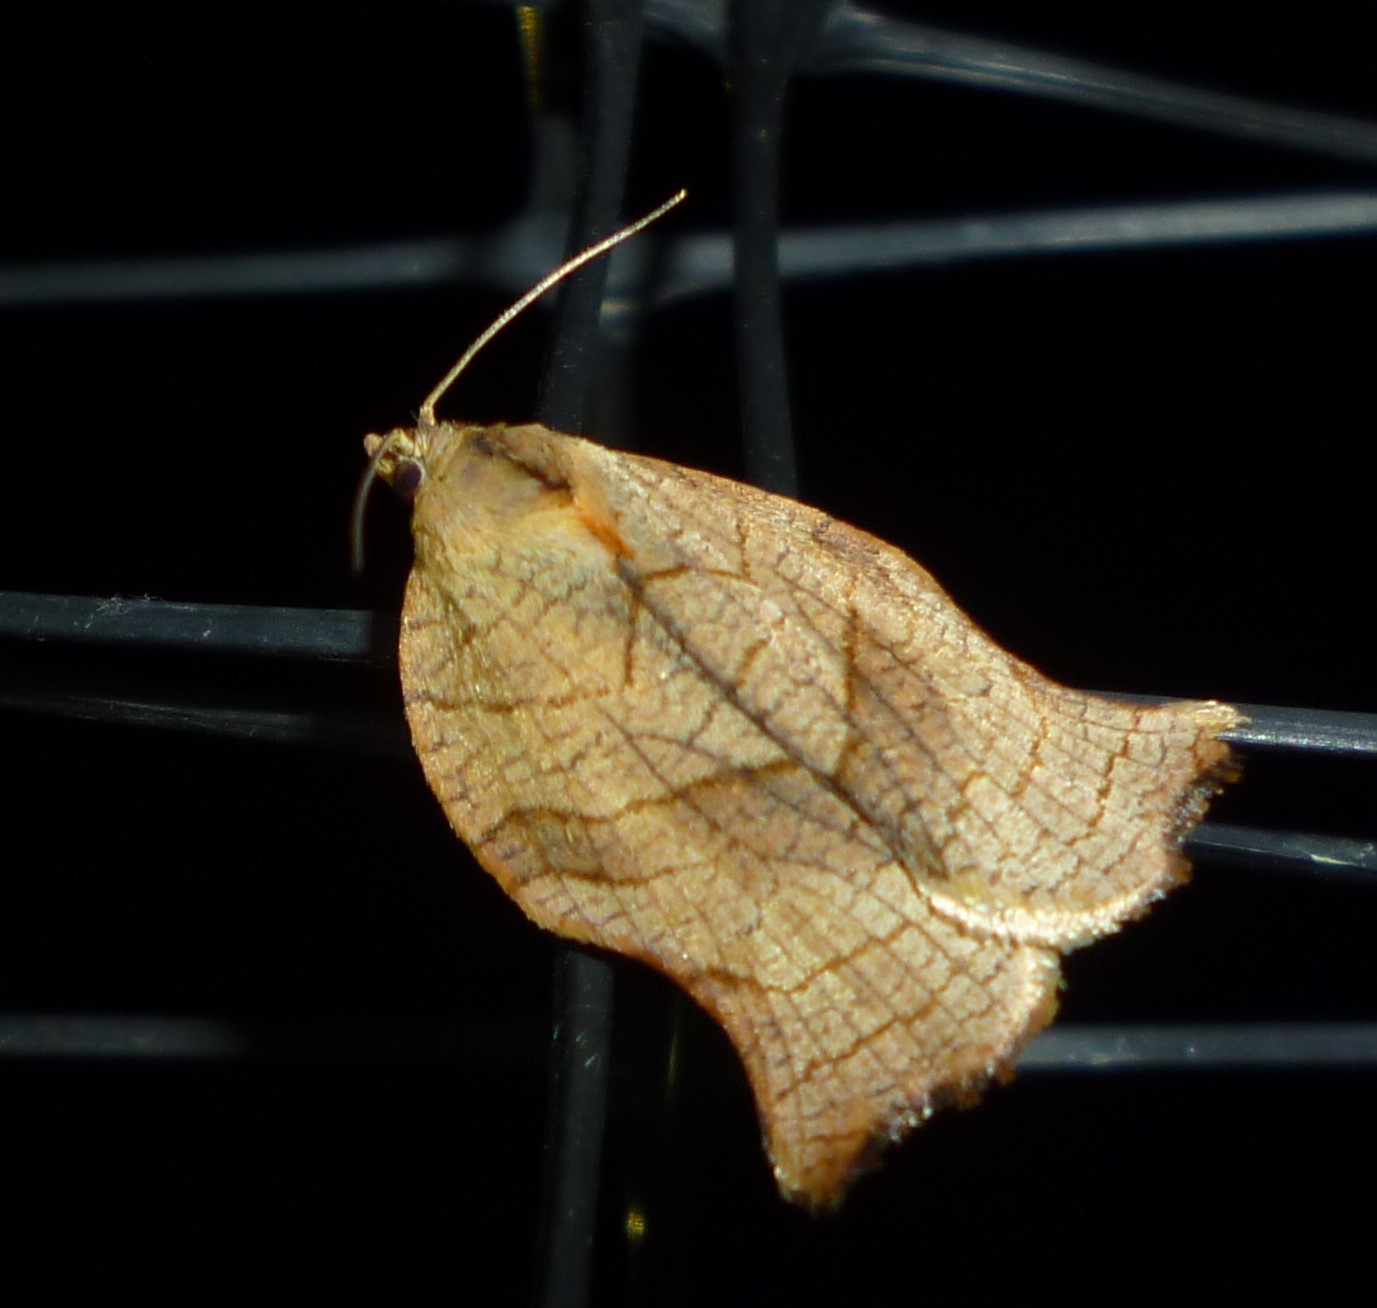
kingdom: Animalia
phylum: Arthropoda
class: Insecta
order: Lepidoptera
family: Tortricidae
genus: Archips
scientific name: Archips purpurana
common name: Omnivorous leafroller
